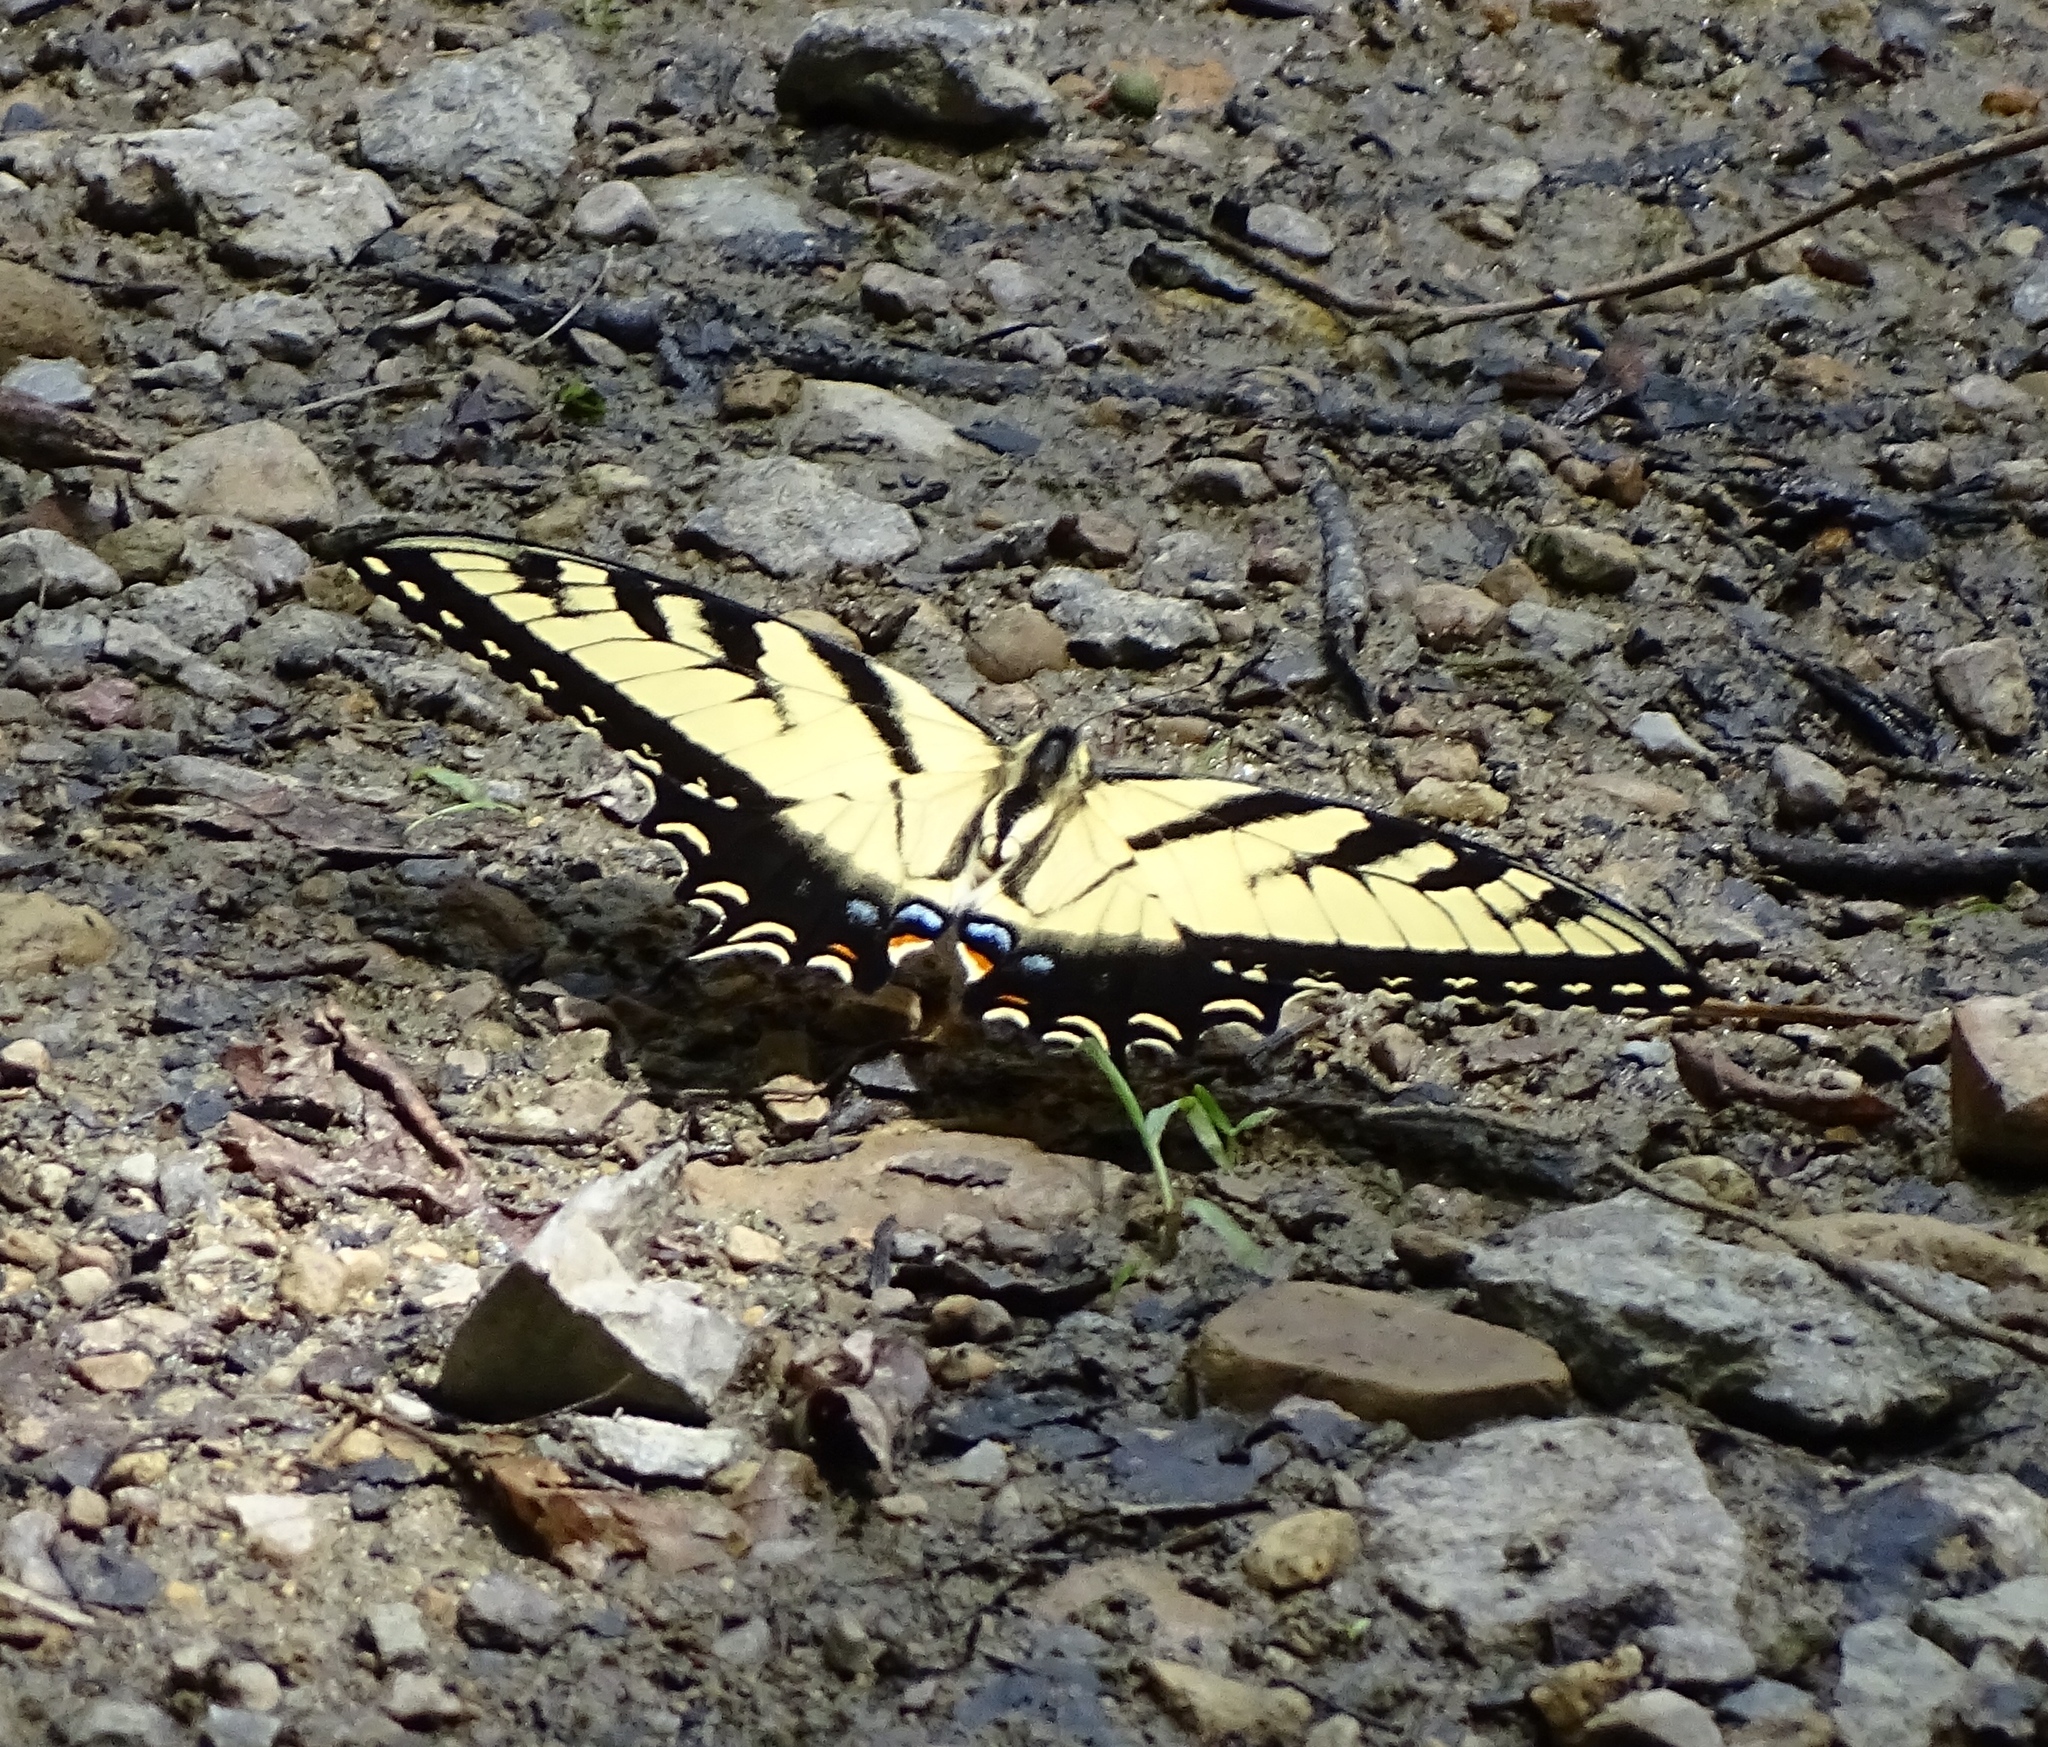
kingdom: Animalia
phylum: Arthropoda
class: Insecta
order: Lepidoptera
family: Papilionidae
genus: Papilio
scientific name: Papilio glaucus
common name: Tiger swallowtail
